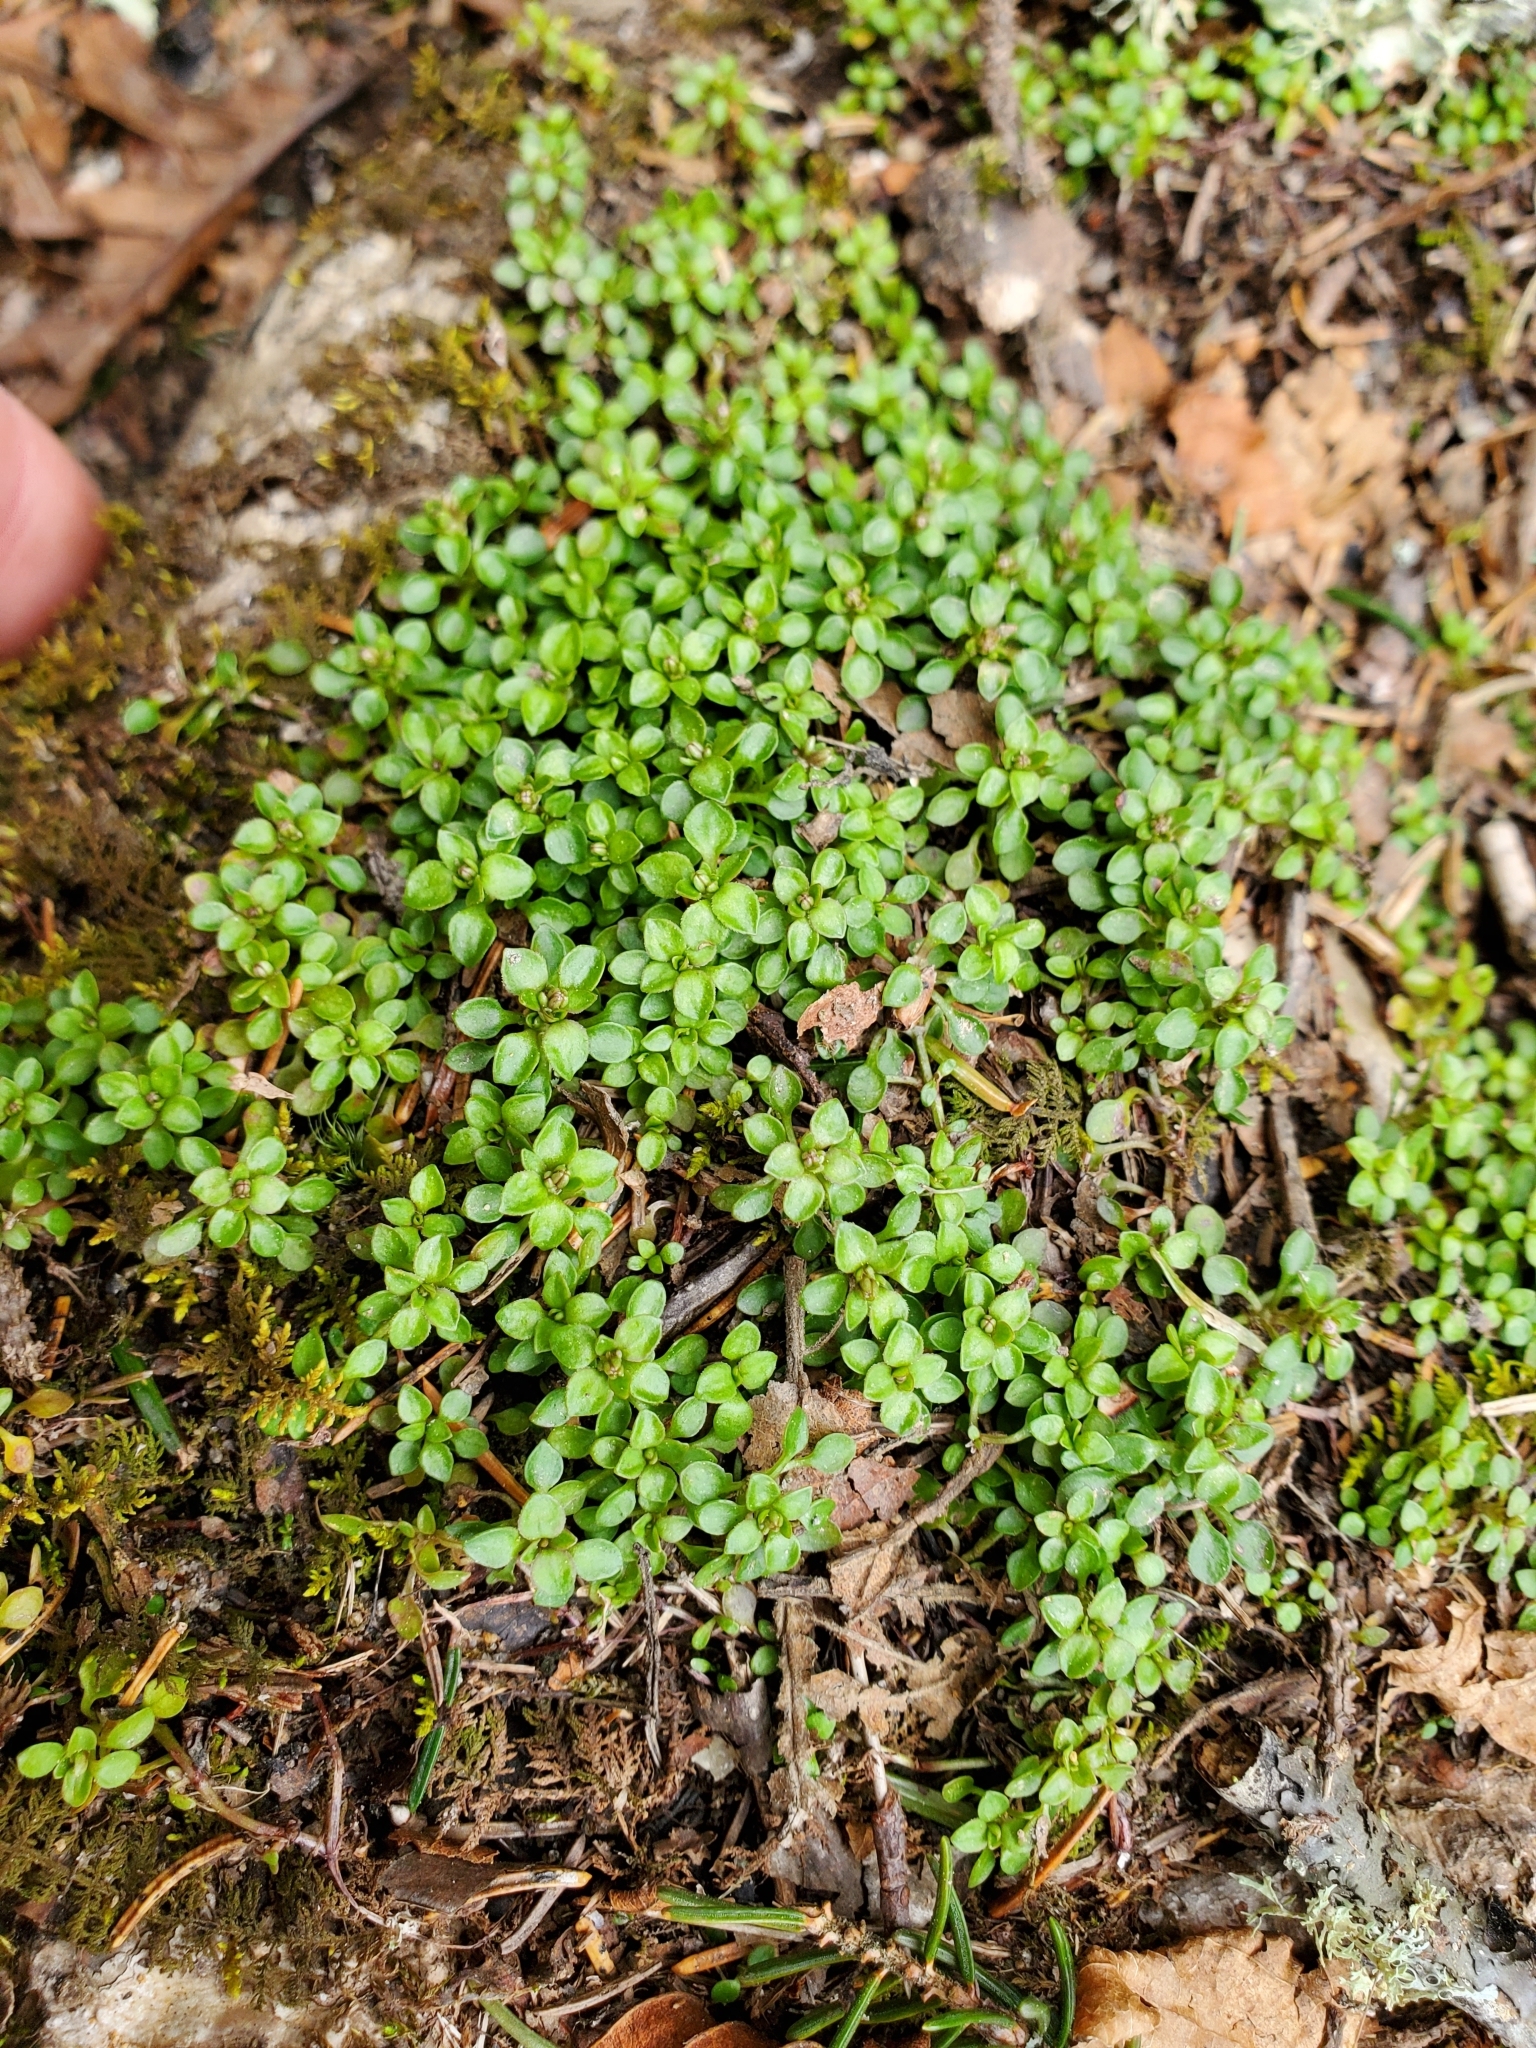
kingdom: Plantae
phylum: Tracheophyta
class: Magnoliopsida
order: Gentianales
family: Rubiaceae
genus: Houstonia
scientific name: Houstonia serpyllifolia
